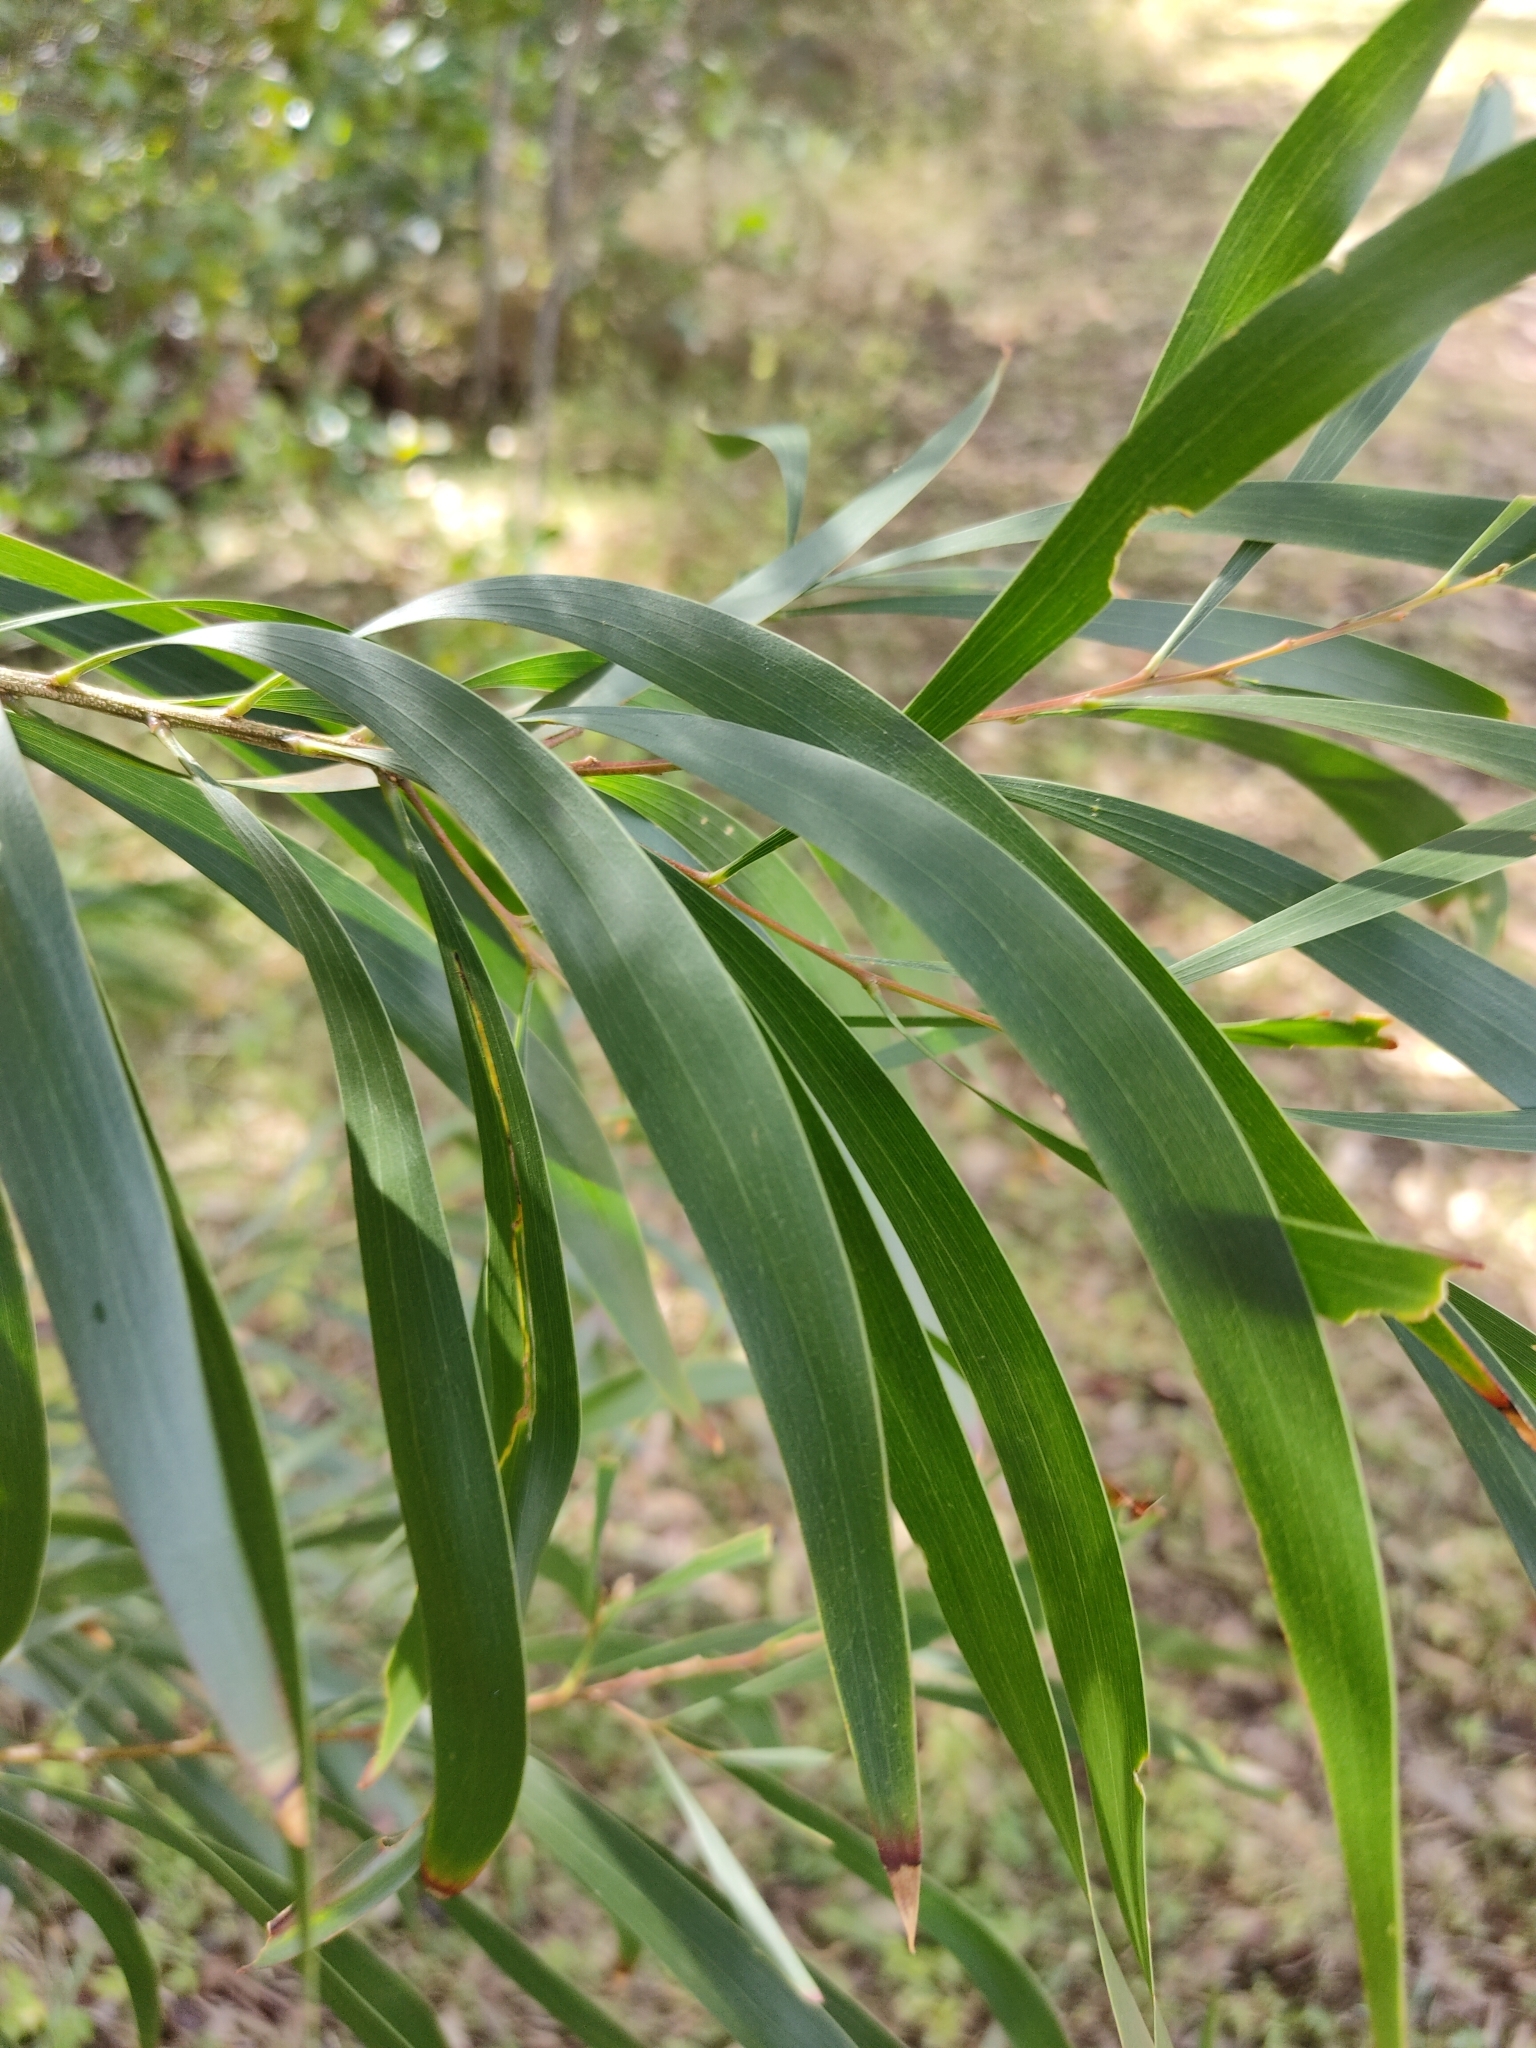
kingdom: Plantae
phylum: Tracheophyta
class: Magnoliopsida
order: Fabales
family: Fabaceae
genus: Acacia
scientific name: Acacia maidenii
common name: Maiden's wattle
